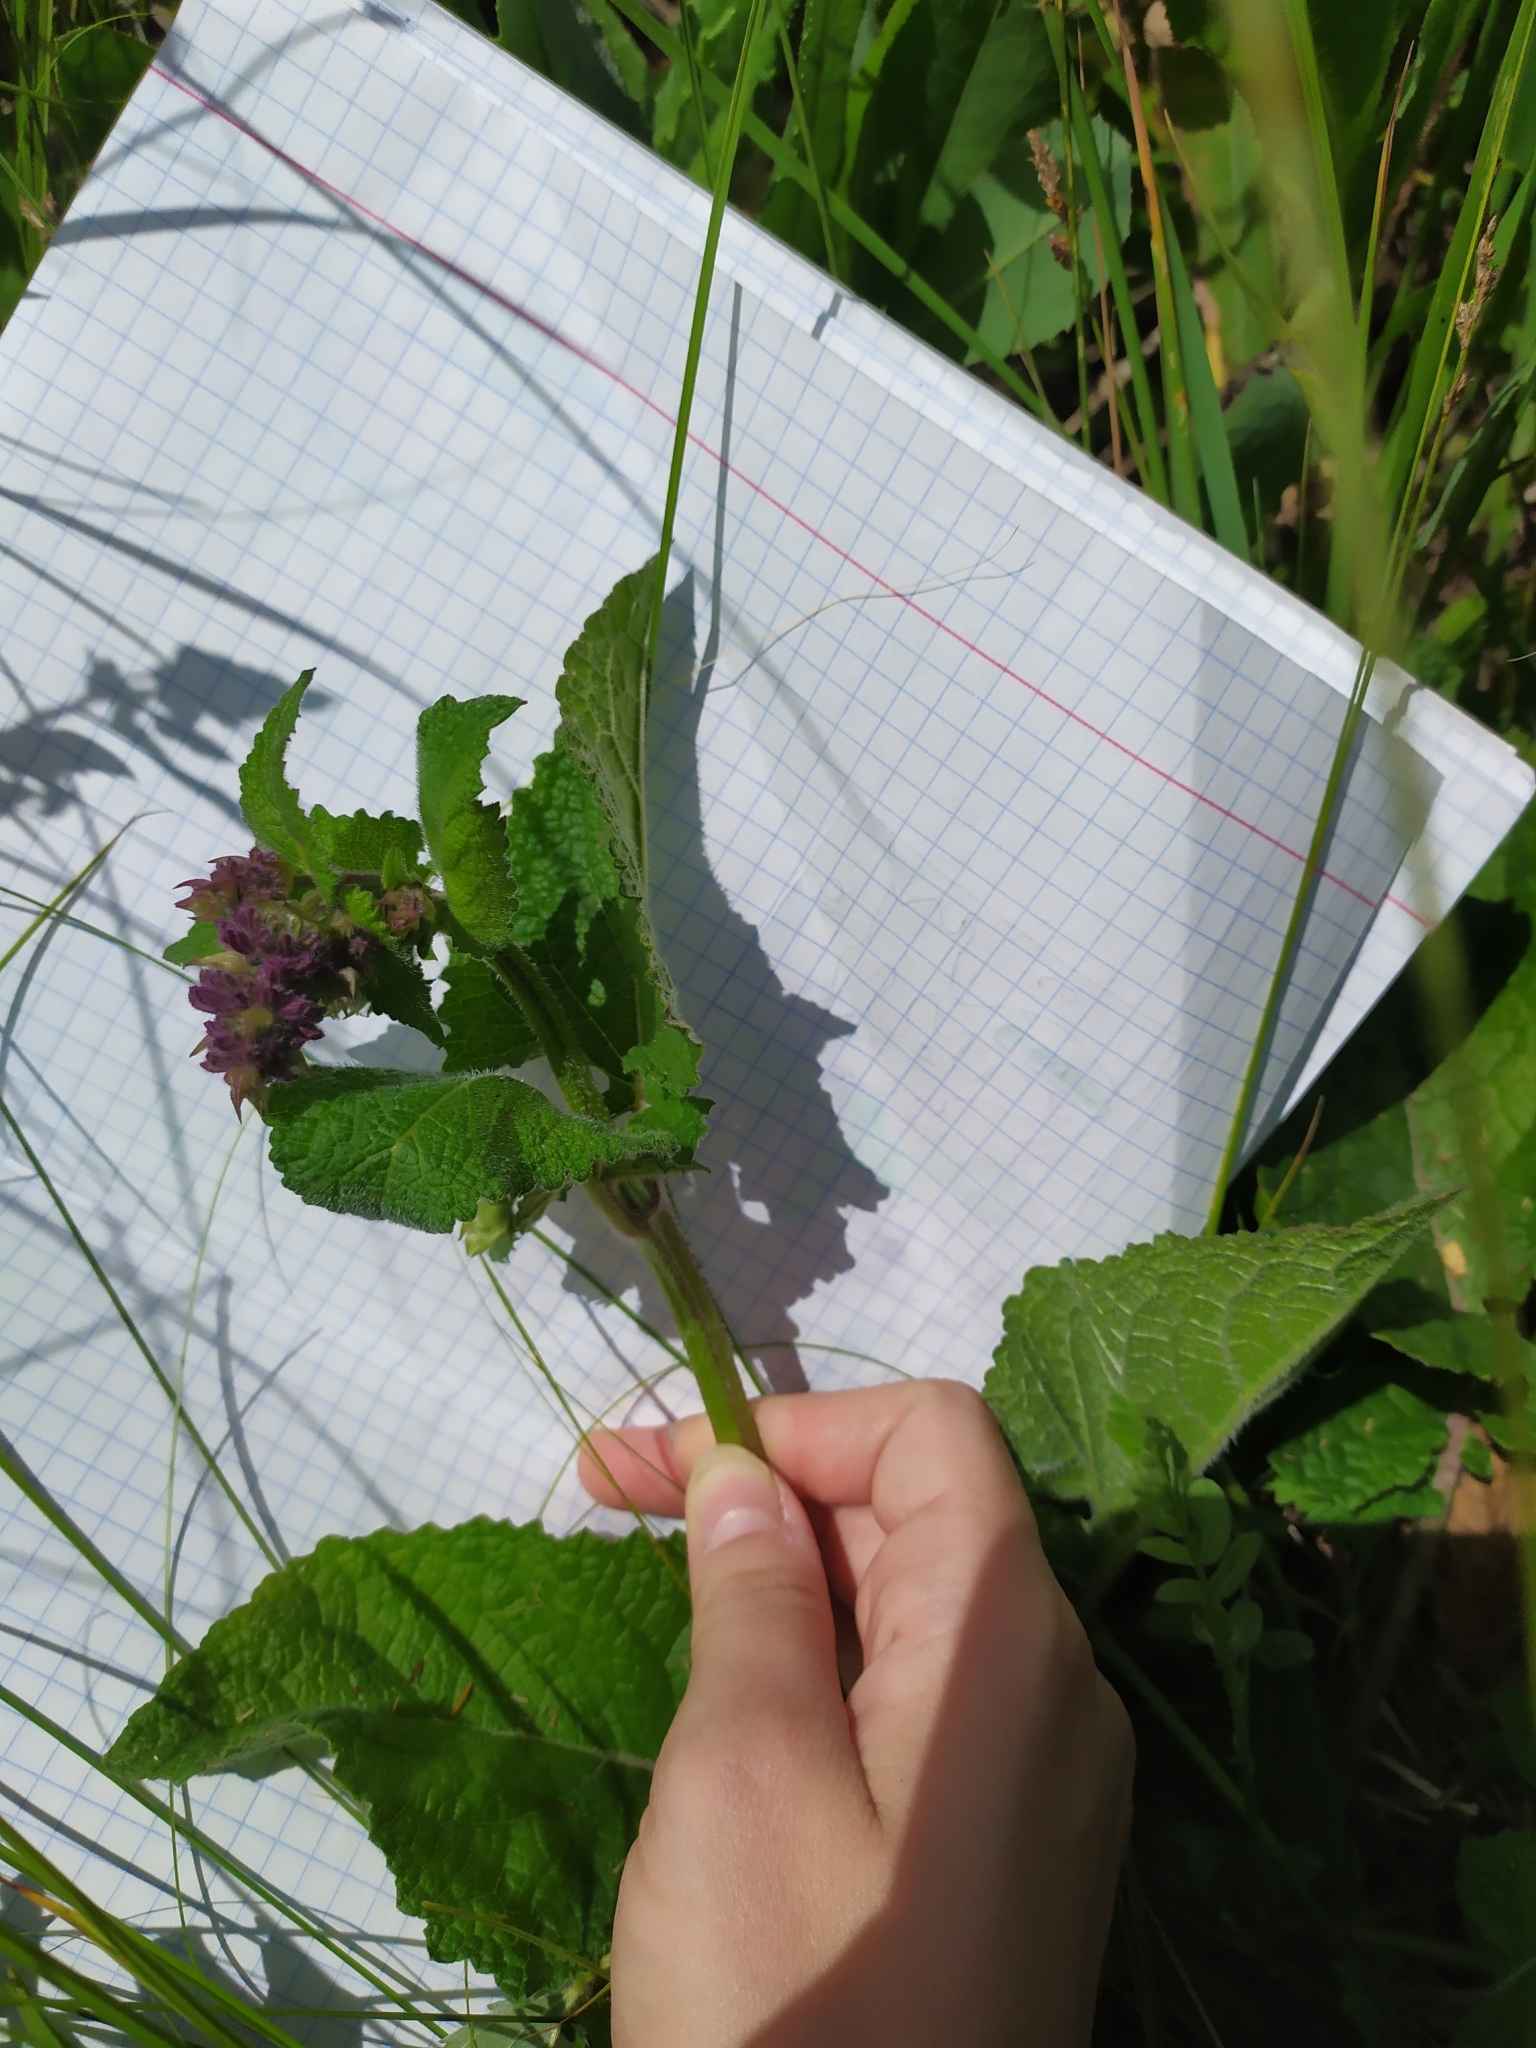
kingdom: Plantae
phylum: Tracheophyta
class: Magnoliopsida
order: Lamiales
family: Lamiaceae
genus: Salvia
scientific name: Salvia verticillata
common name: Whorled clary
